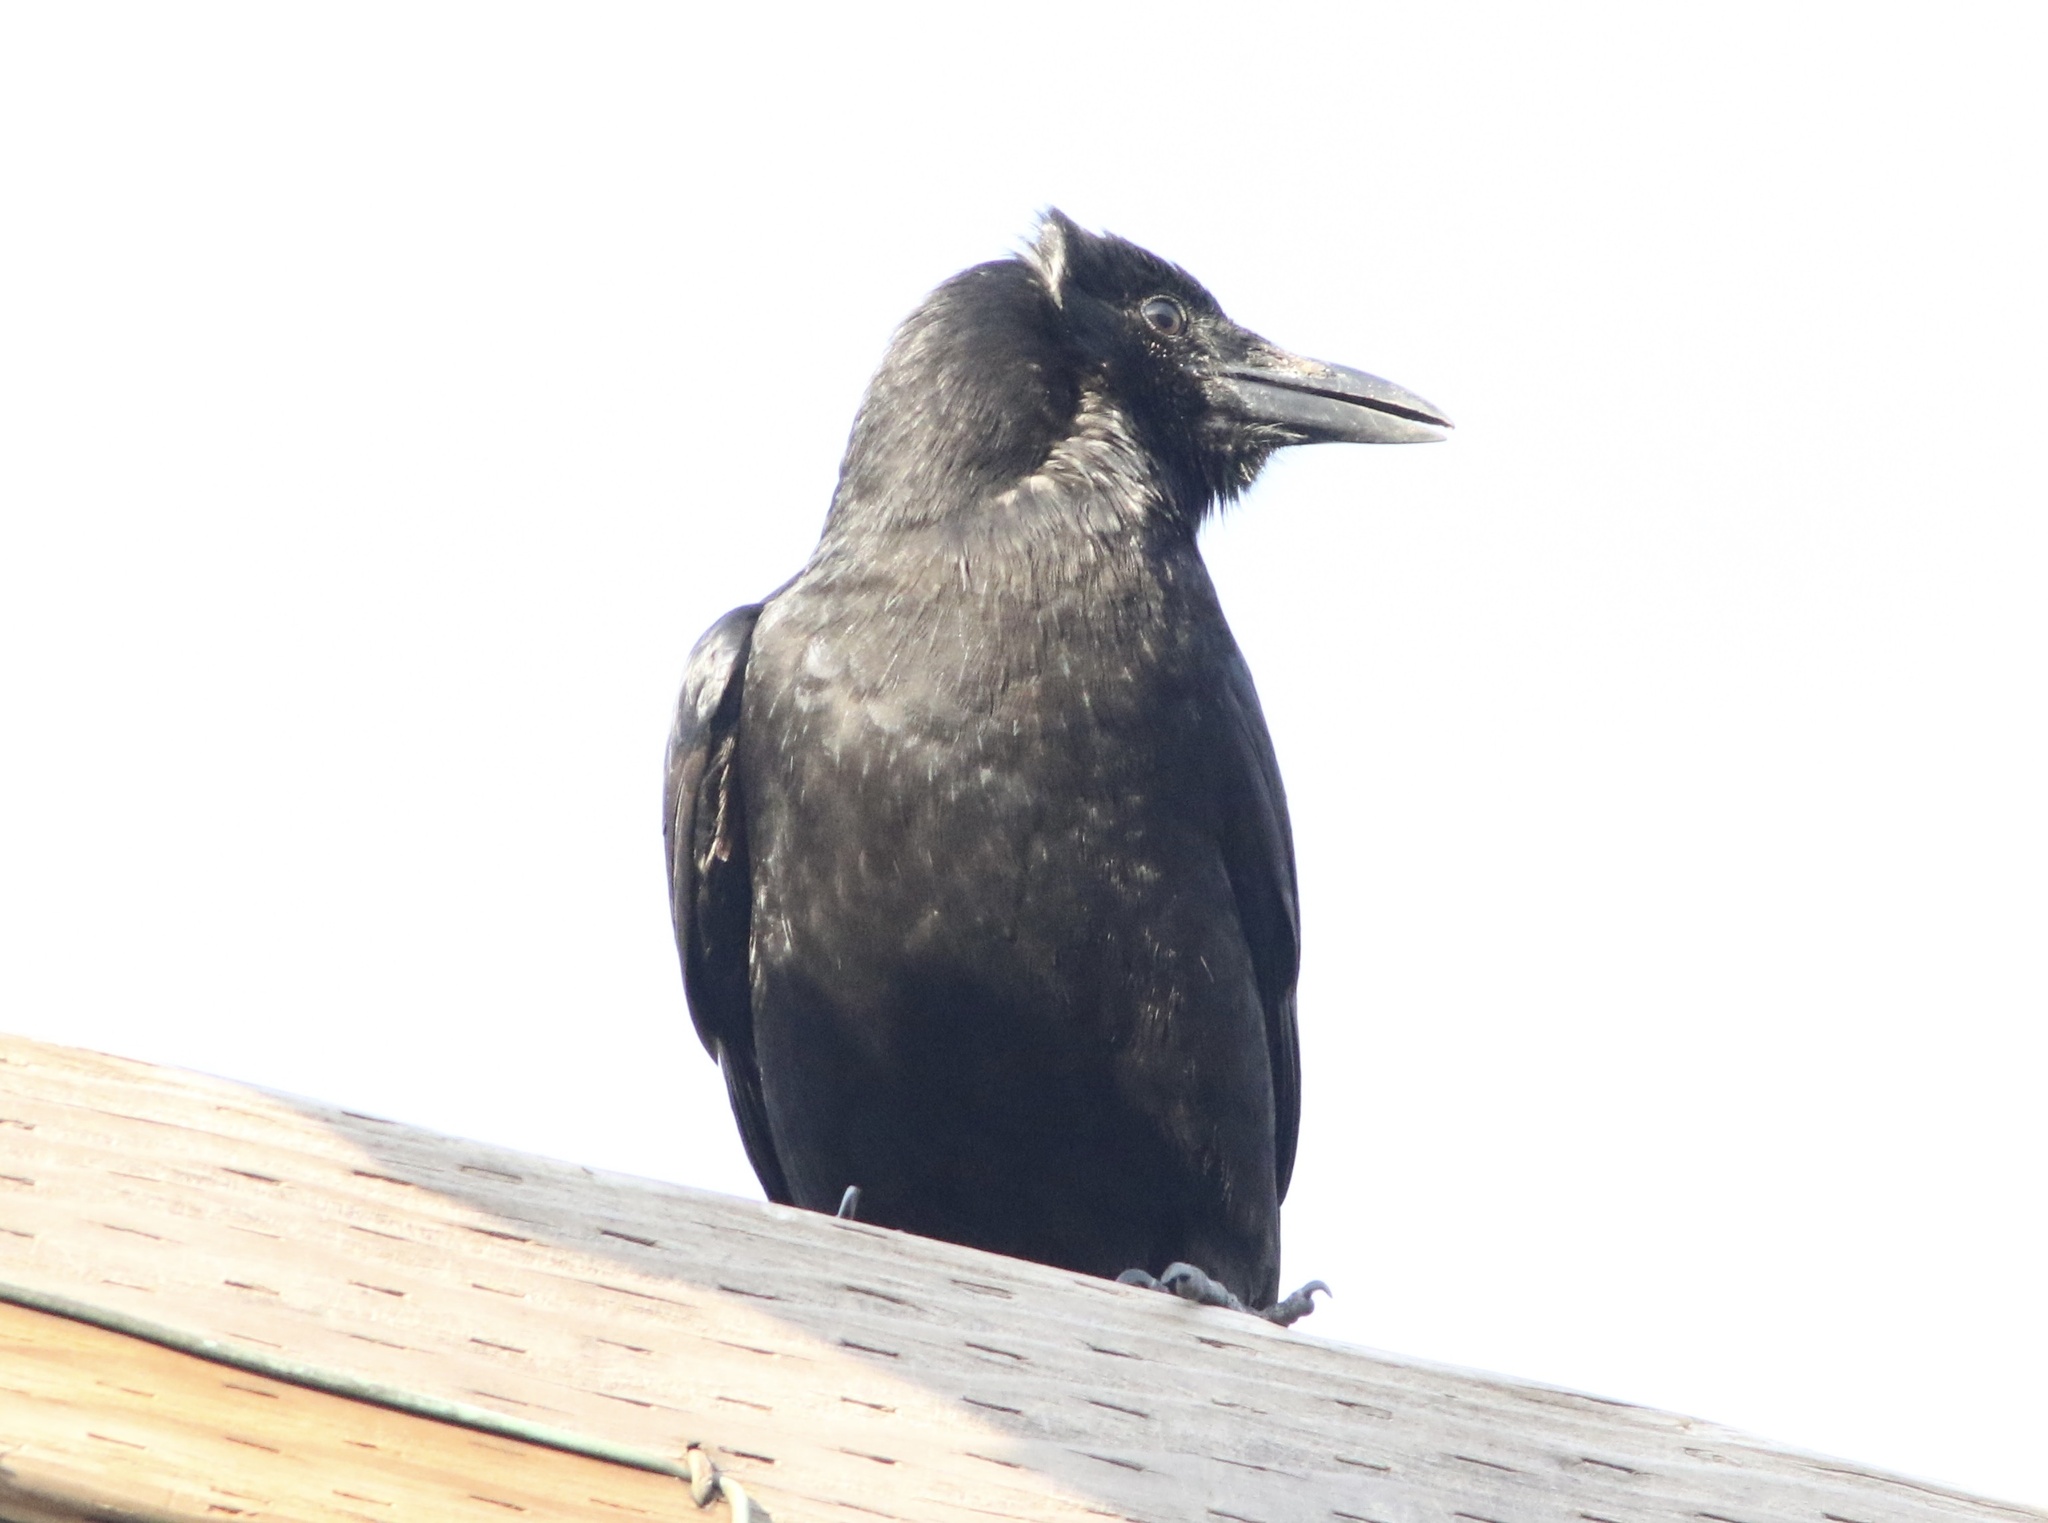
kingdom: Animalia
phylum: Chordata
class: Aves
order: Passeriformes
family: Corvidae
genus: Corvus
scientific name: Corvus brachyrhynchos
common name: American crow
